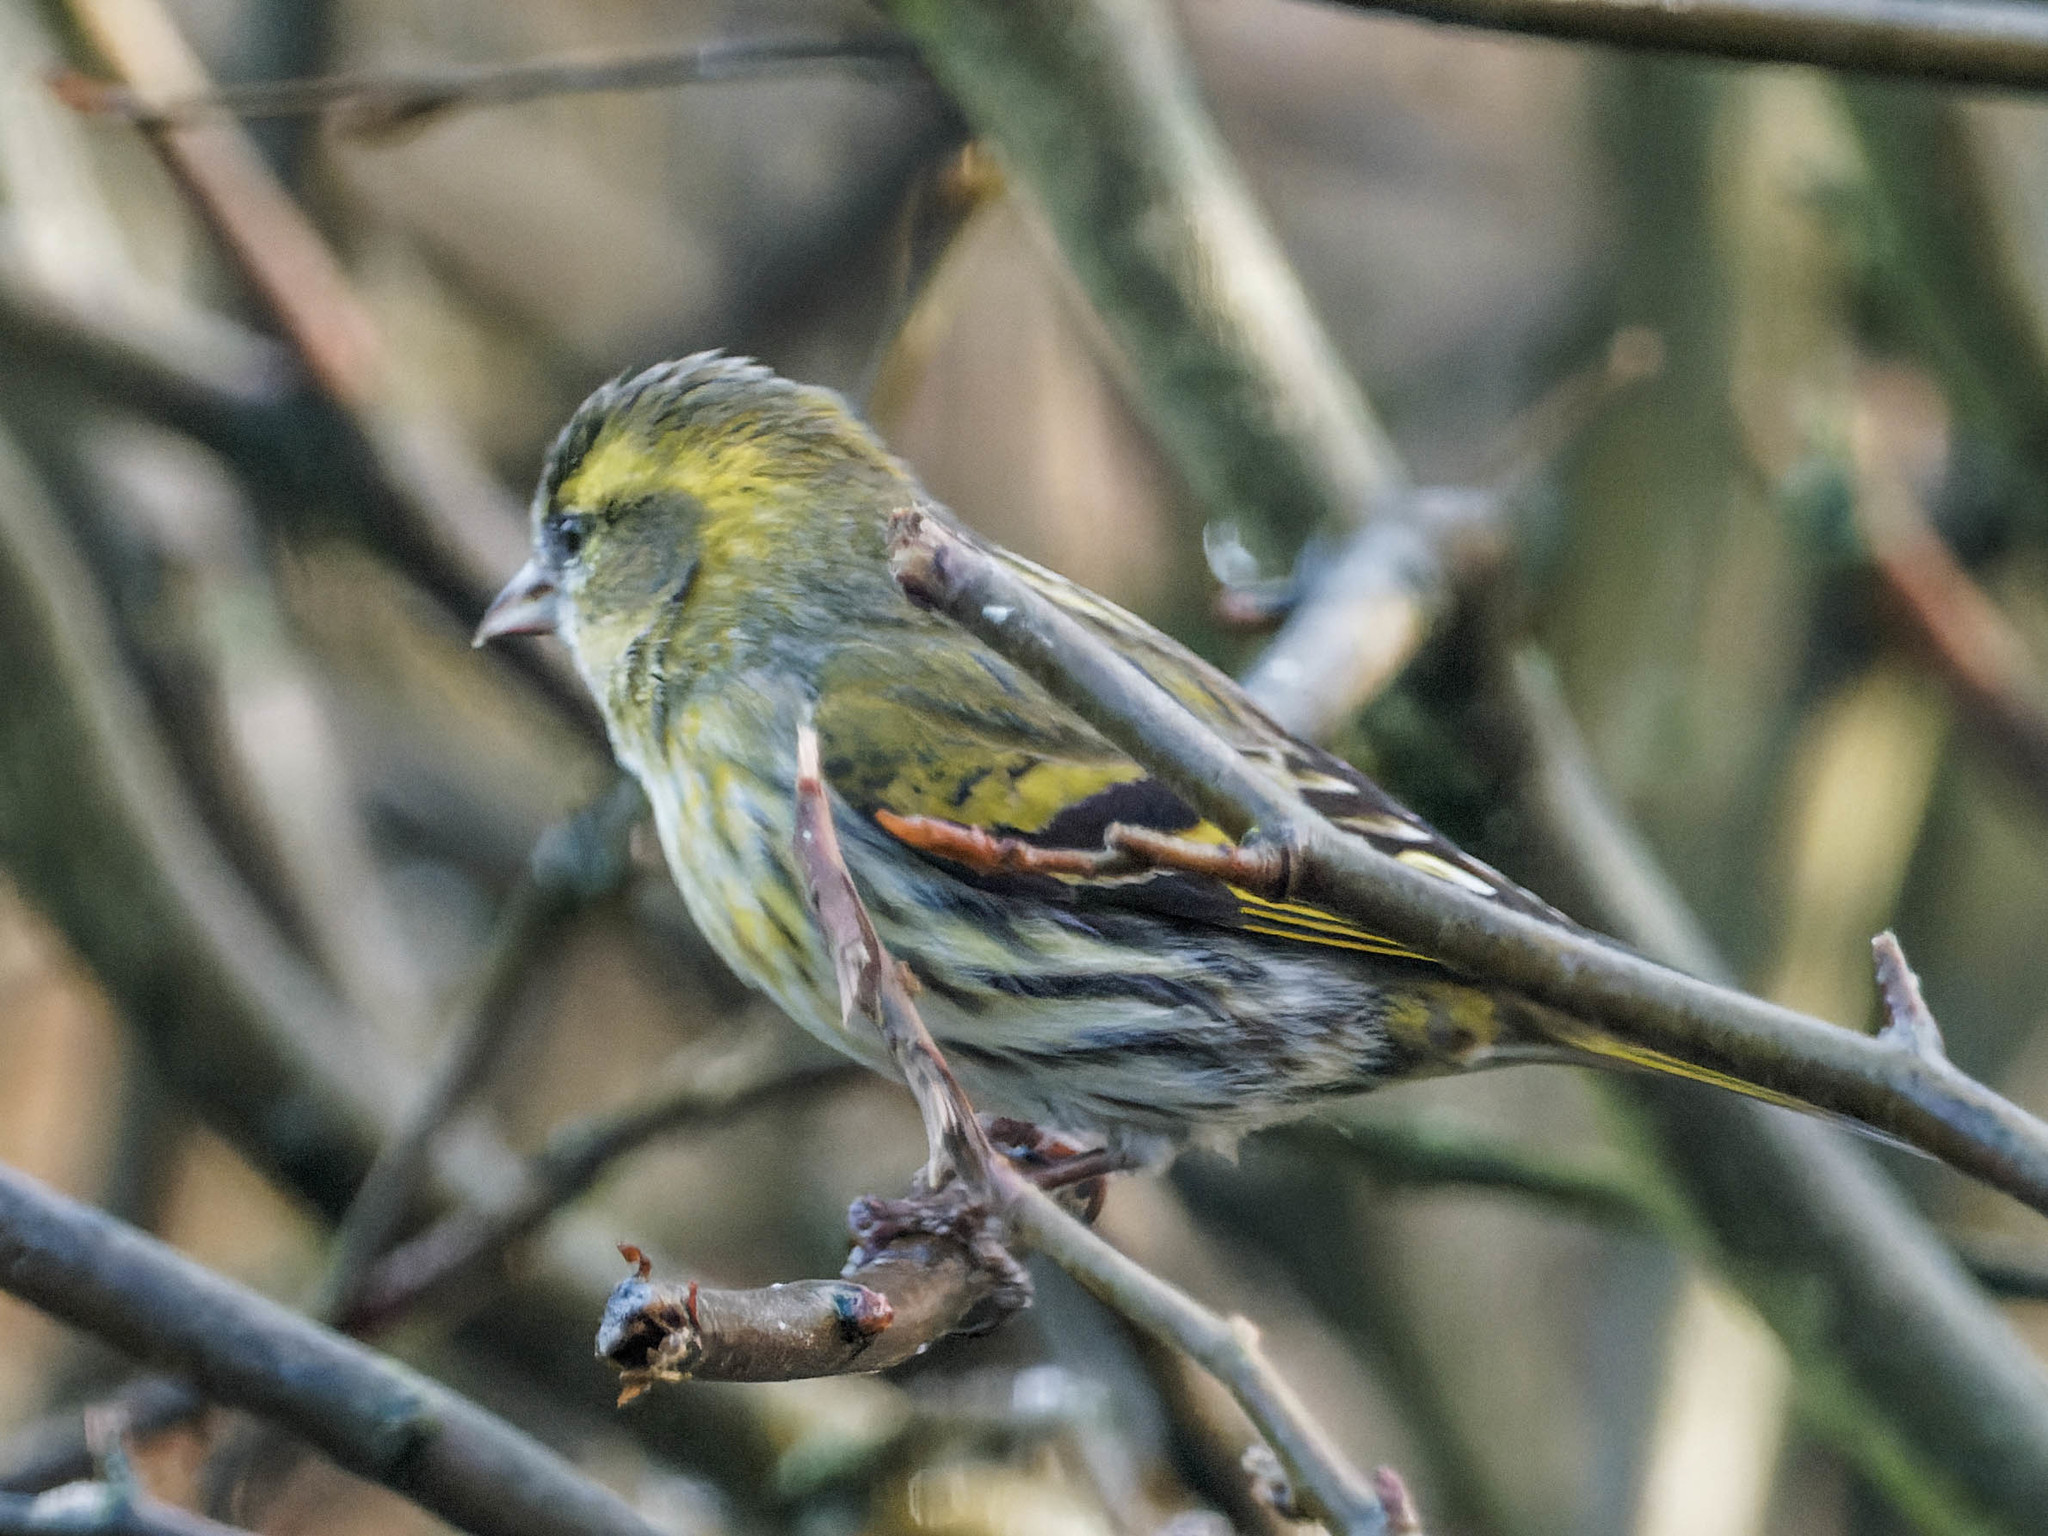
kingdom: Animalia
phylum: Chordata
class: Aves
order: Passeriformes
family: Fringillidae
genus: Spinus
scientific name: Spinus spinus
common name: Eurasian siskin
